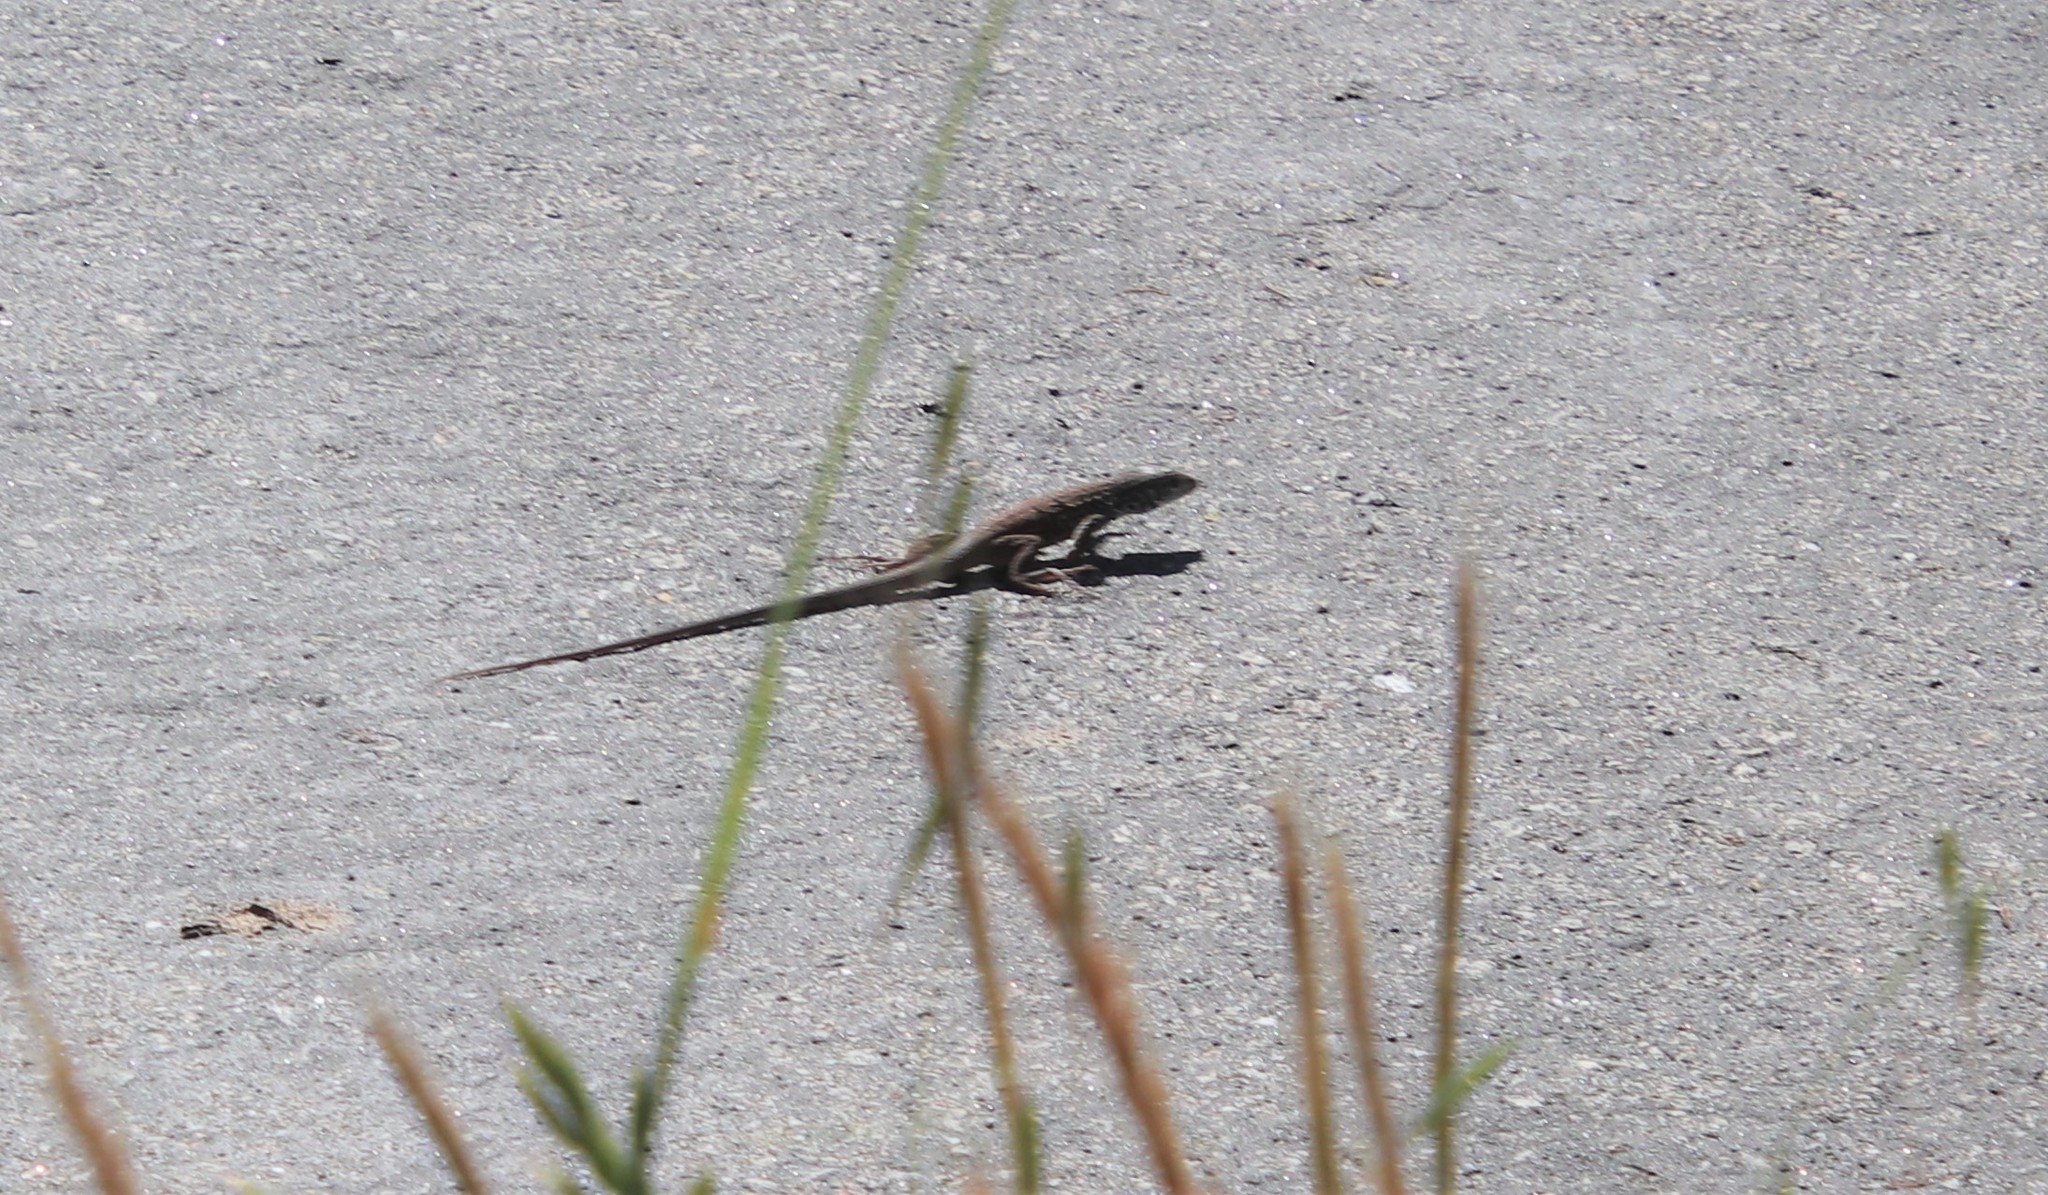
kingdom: Animalia
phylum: Chordata
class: Squamata
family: Teiidae
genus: Aspidoscelis
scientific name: Aspidoscelis tigris
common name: Tiger whiptail
